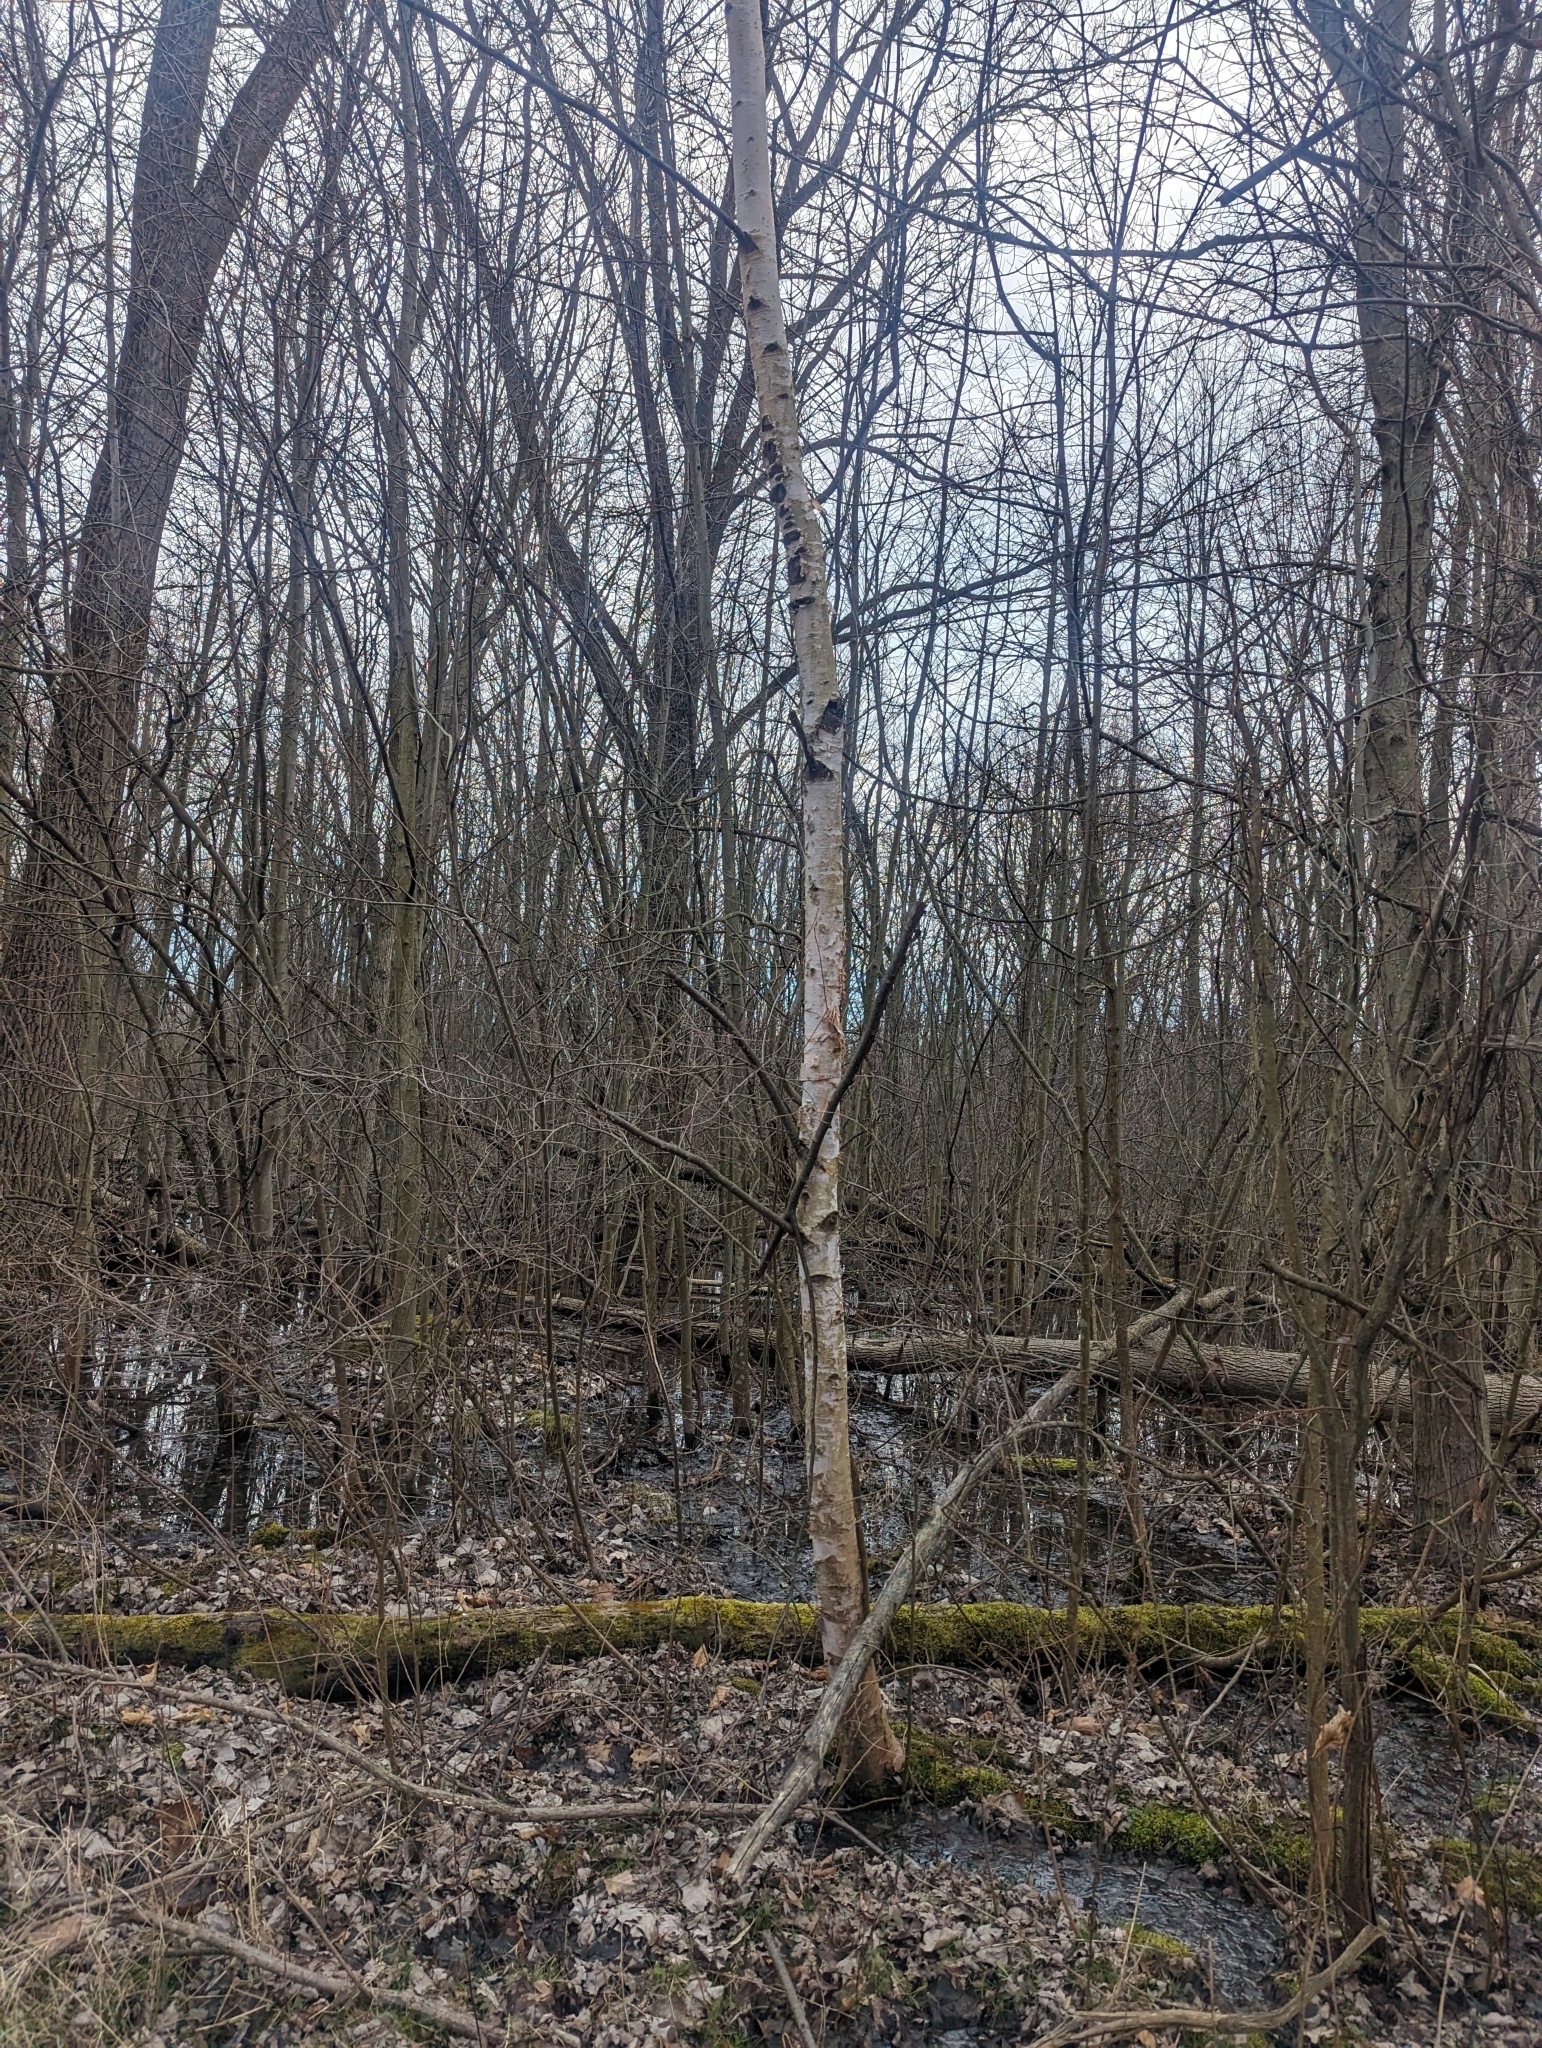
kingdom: Plantae
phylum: Tracheophyta
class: Magnoliopsida
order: Fagales
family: Betulaceae
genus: Betula
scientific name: Betula papyrifera
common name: Paper birch
